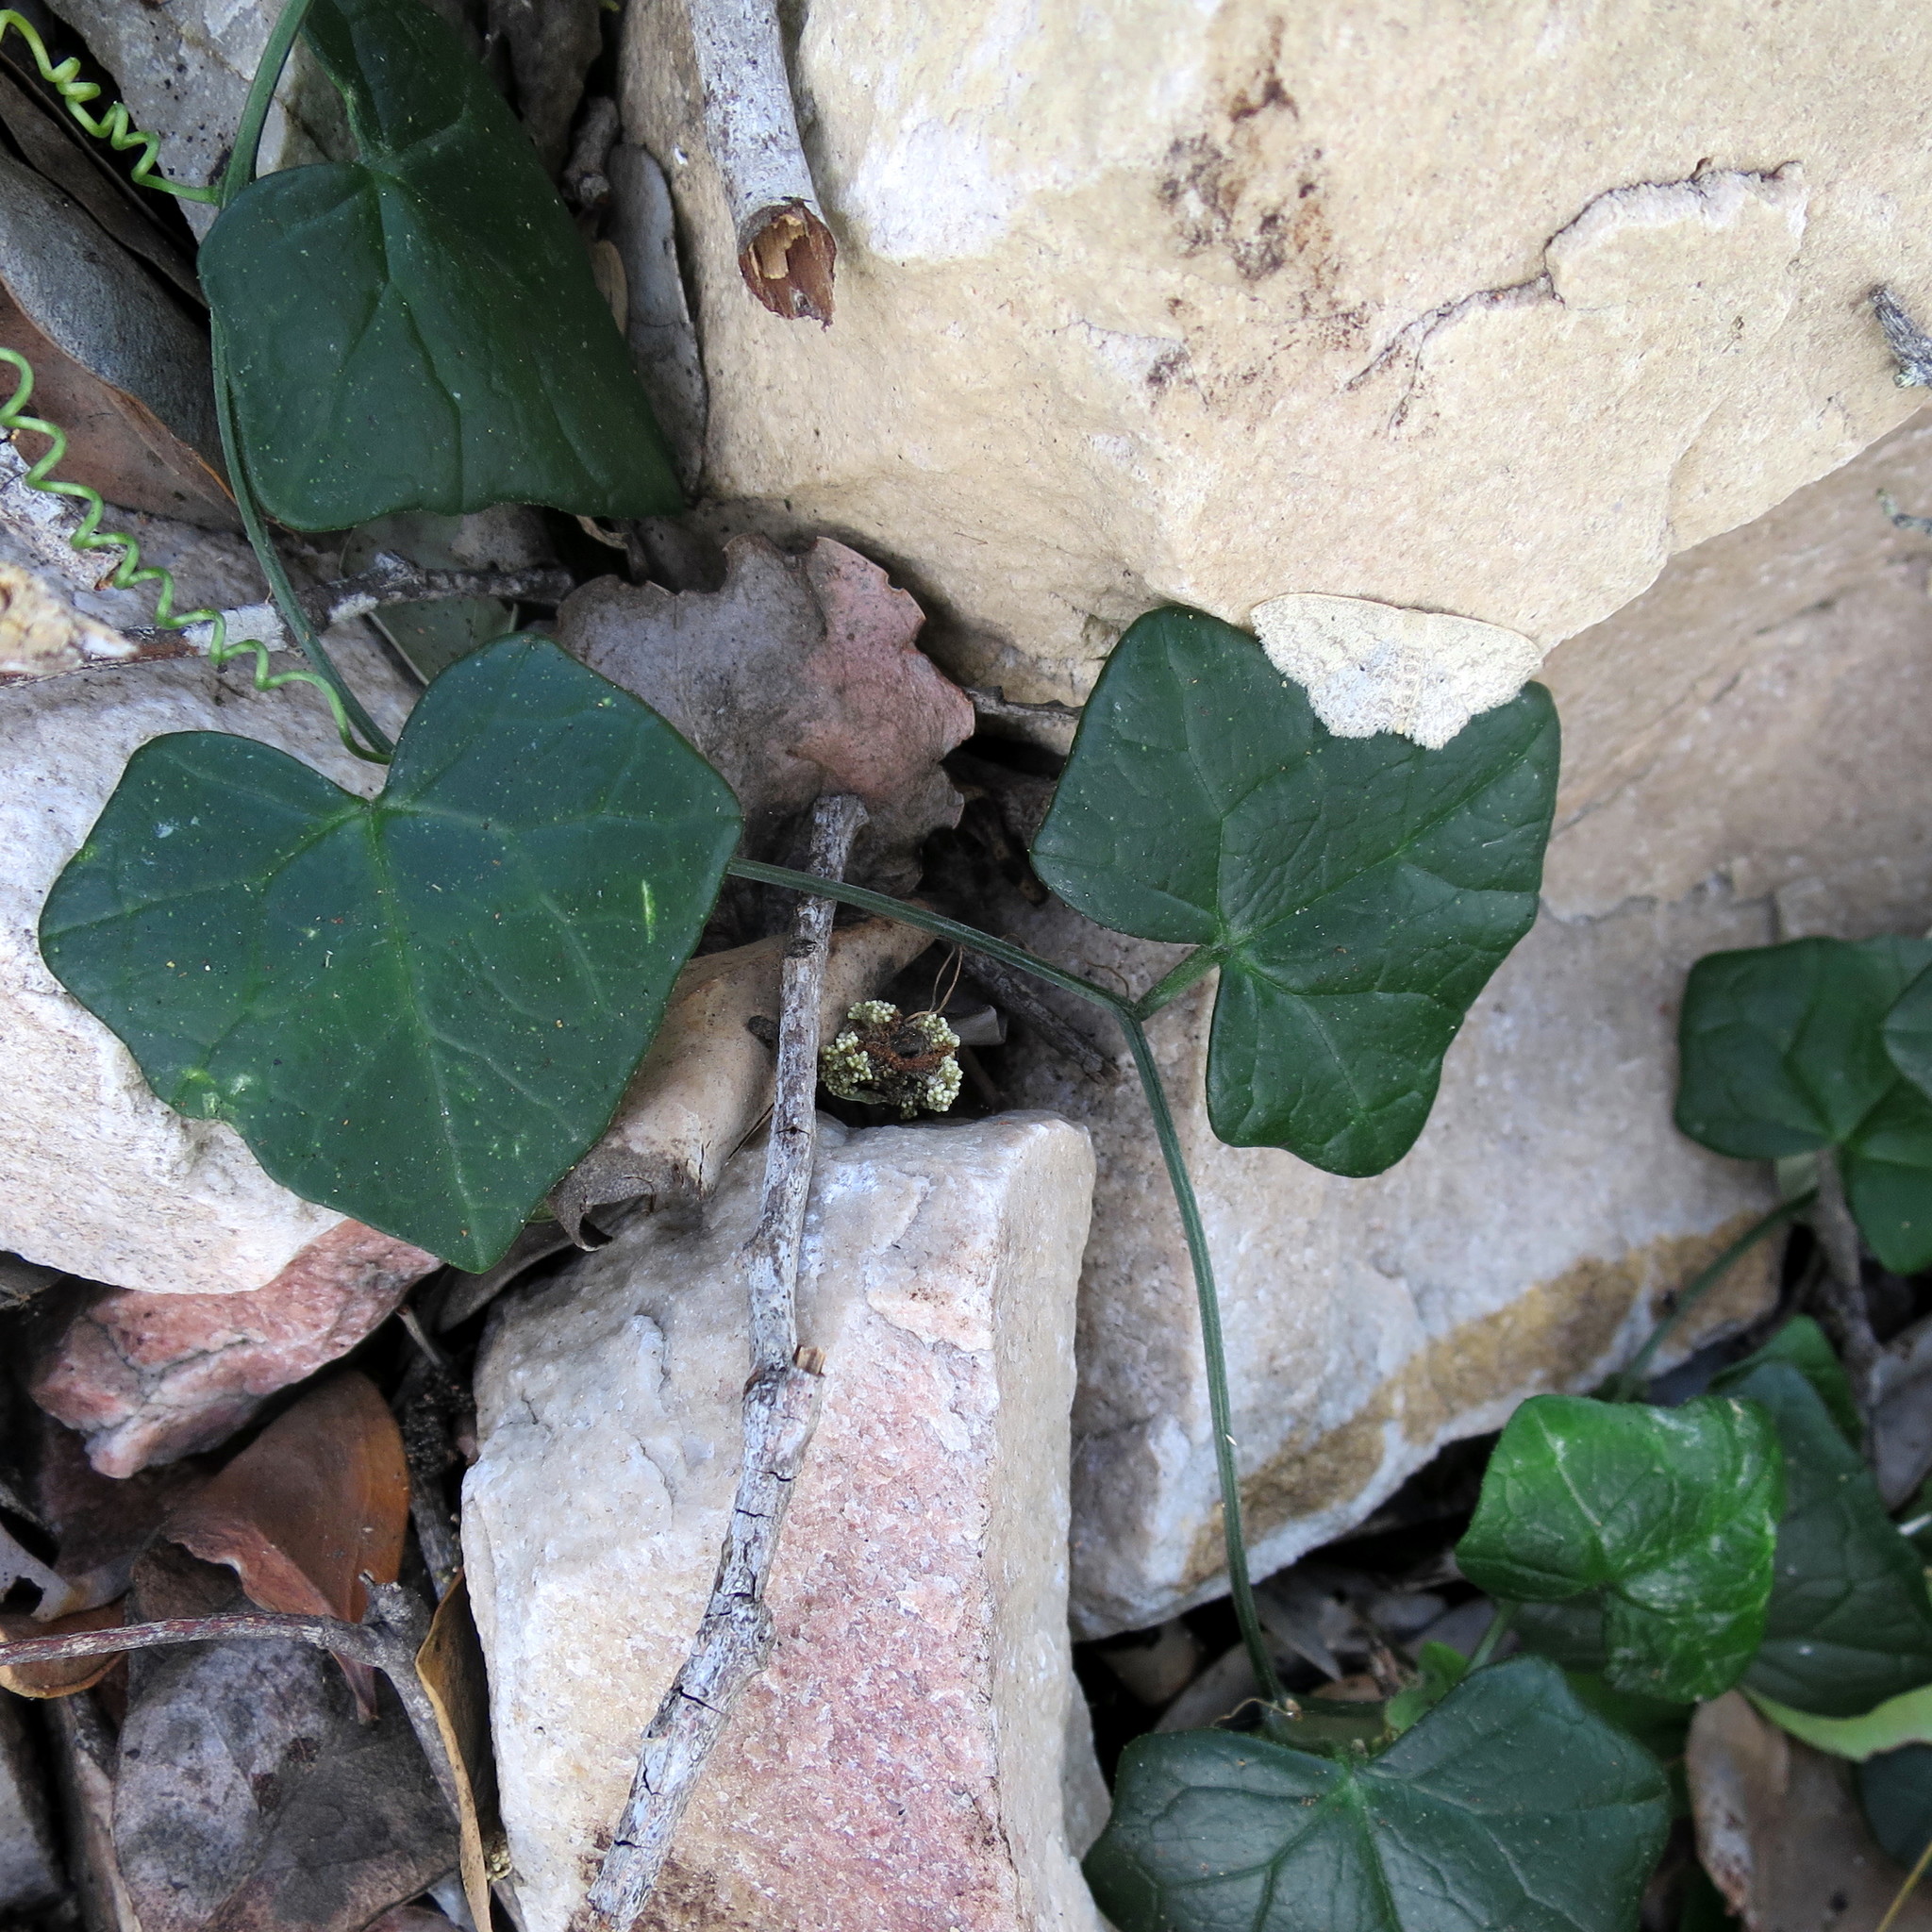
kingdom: Plantae
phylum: Tracheophyta
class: Magnoliopsida
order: Cucurbitales
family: Cucurbitaceae
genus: Kedrostis
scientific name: Kedrostis nana
